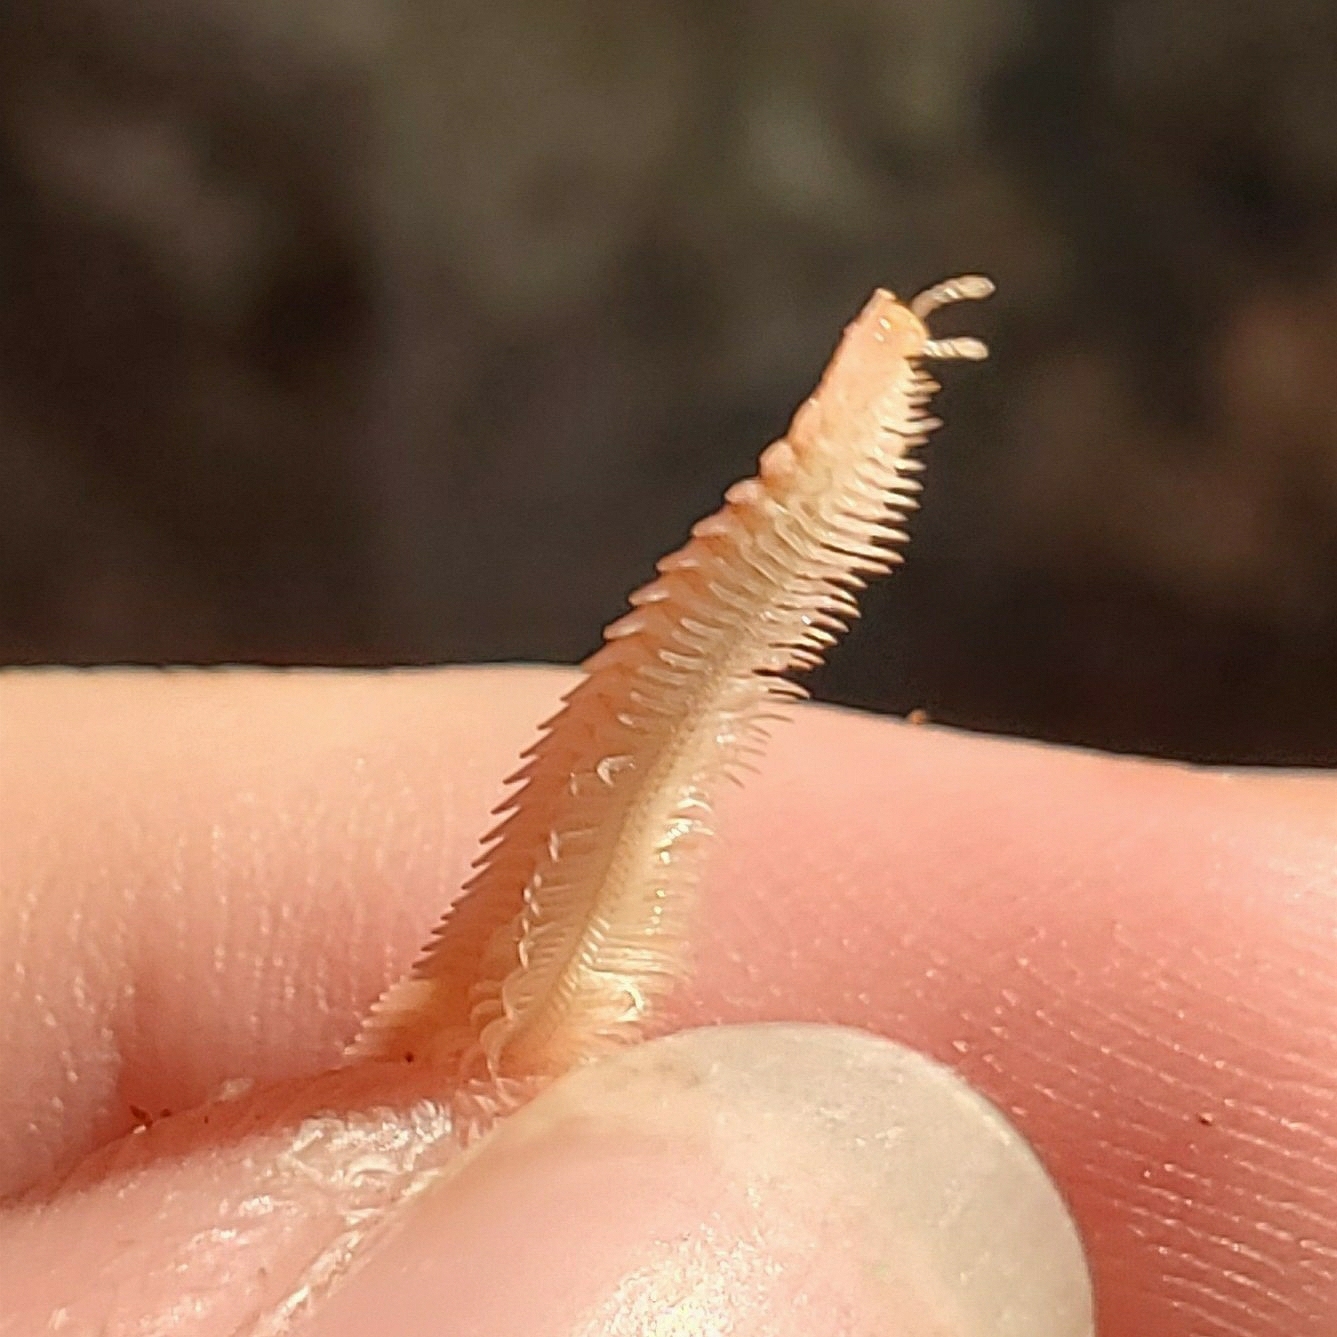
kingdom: Animalia
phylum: Arthropoda
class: Diplopoda
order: Platydesmida
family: Andrognathidae
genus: Brachycybe
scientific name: Brachycybe lecontii
